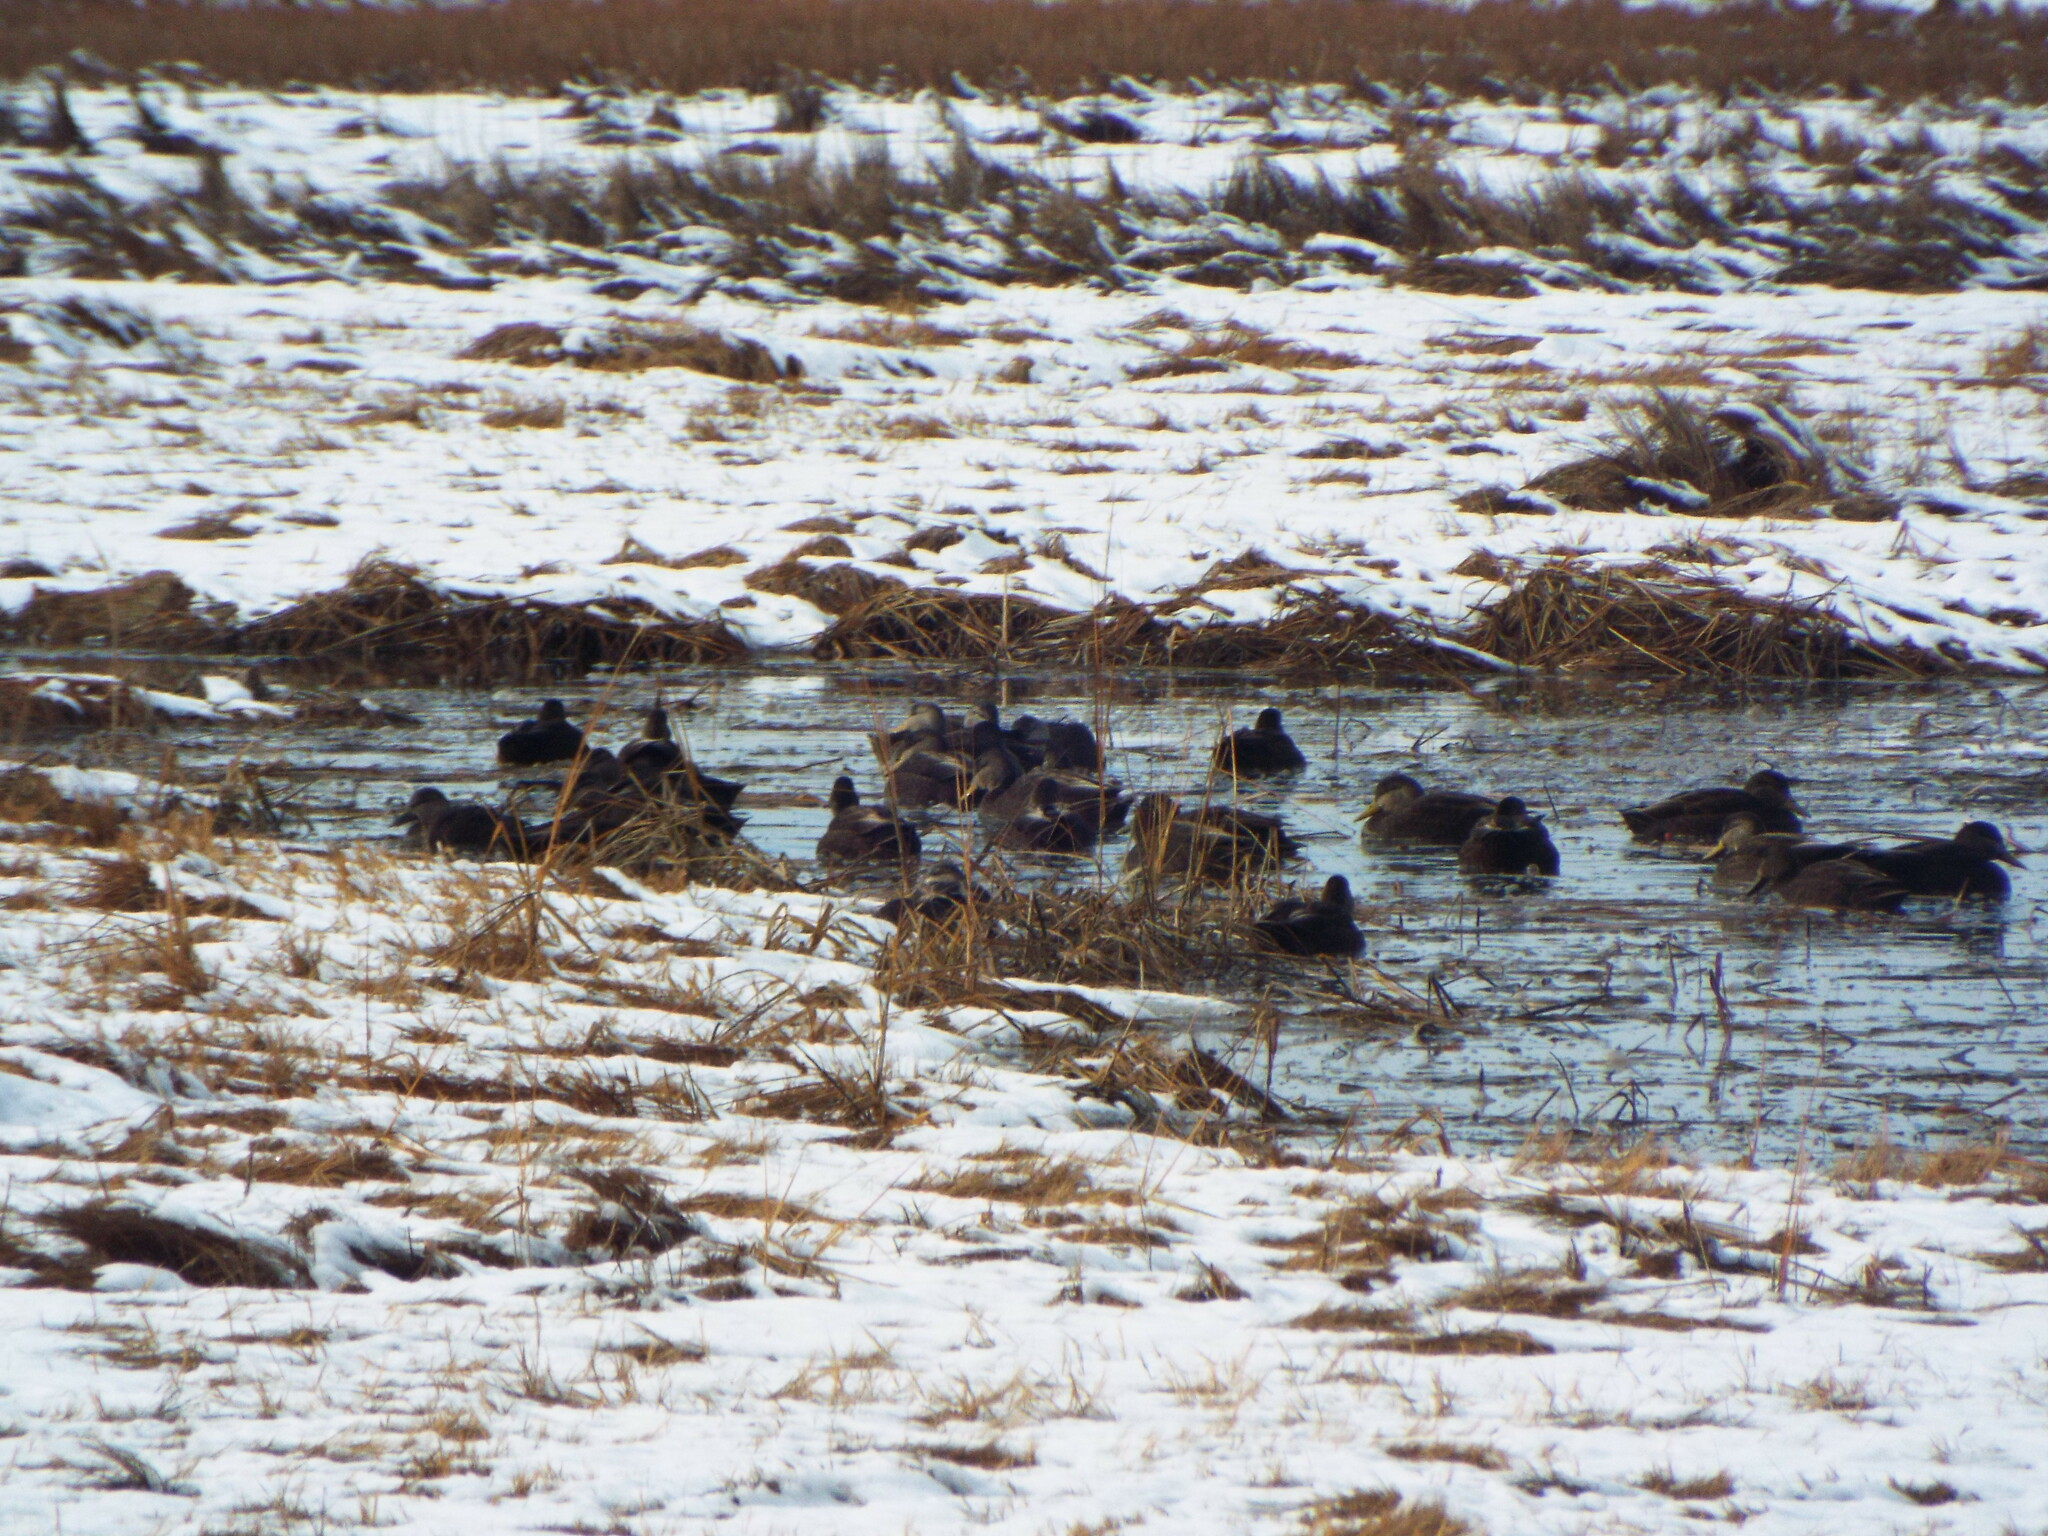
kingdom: Animalia
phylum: Chordata
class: Aves
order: Anseriformes
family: Anatidae
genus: Anas
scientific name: Anas rubripes
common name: American black duck
